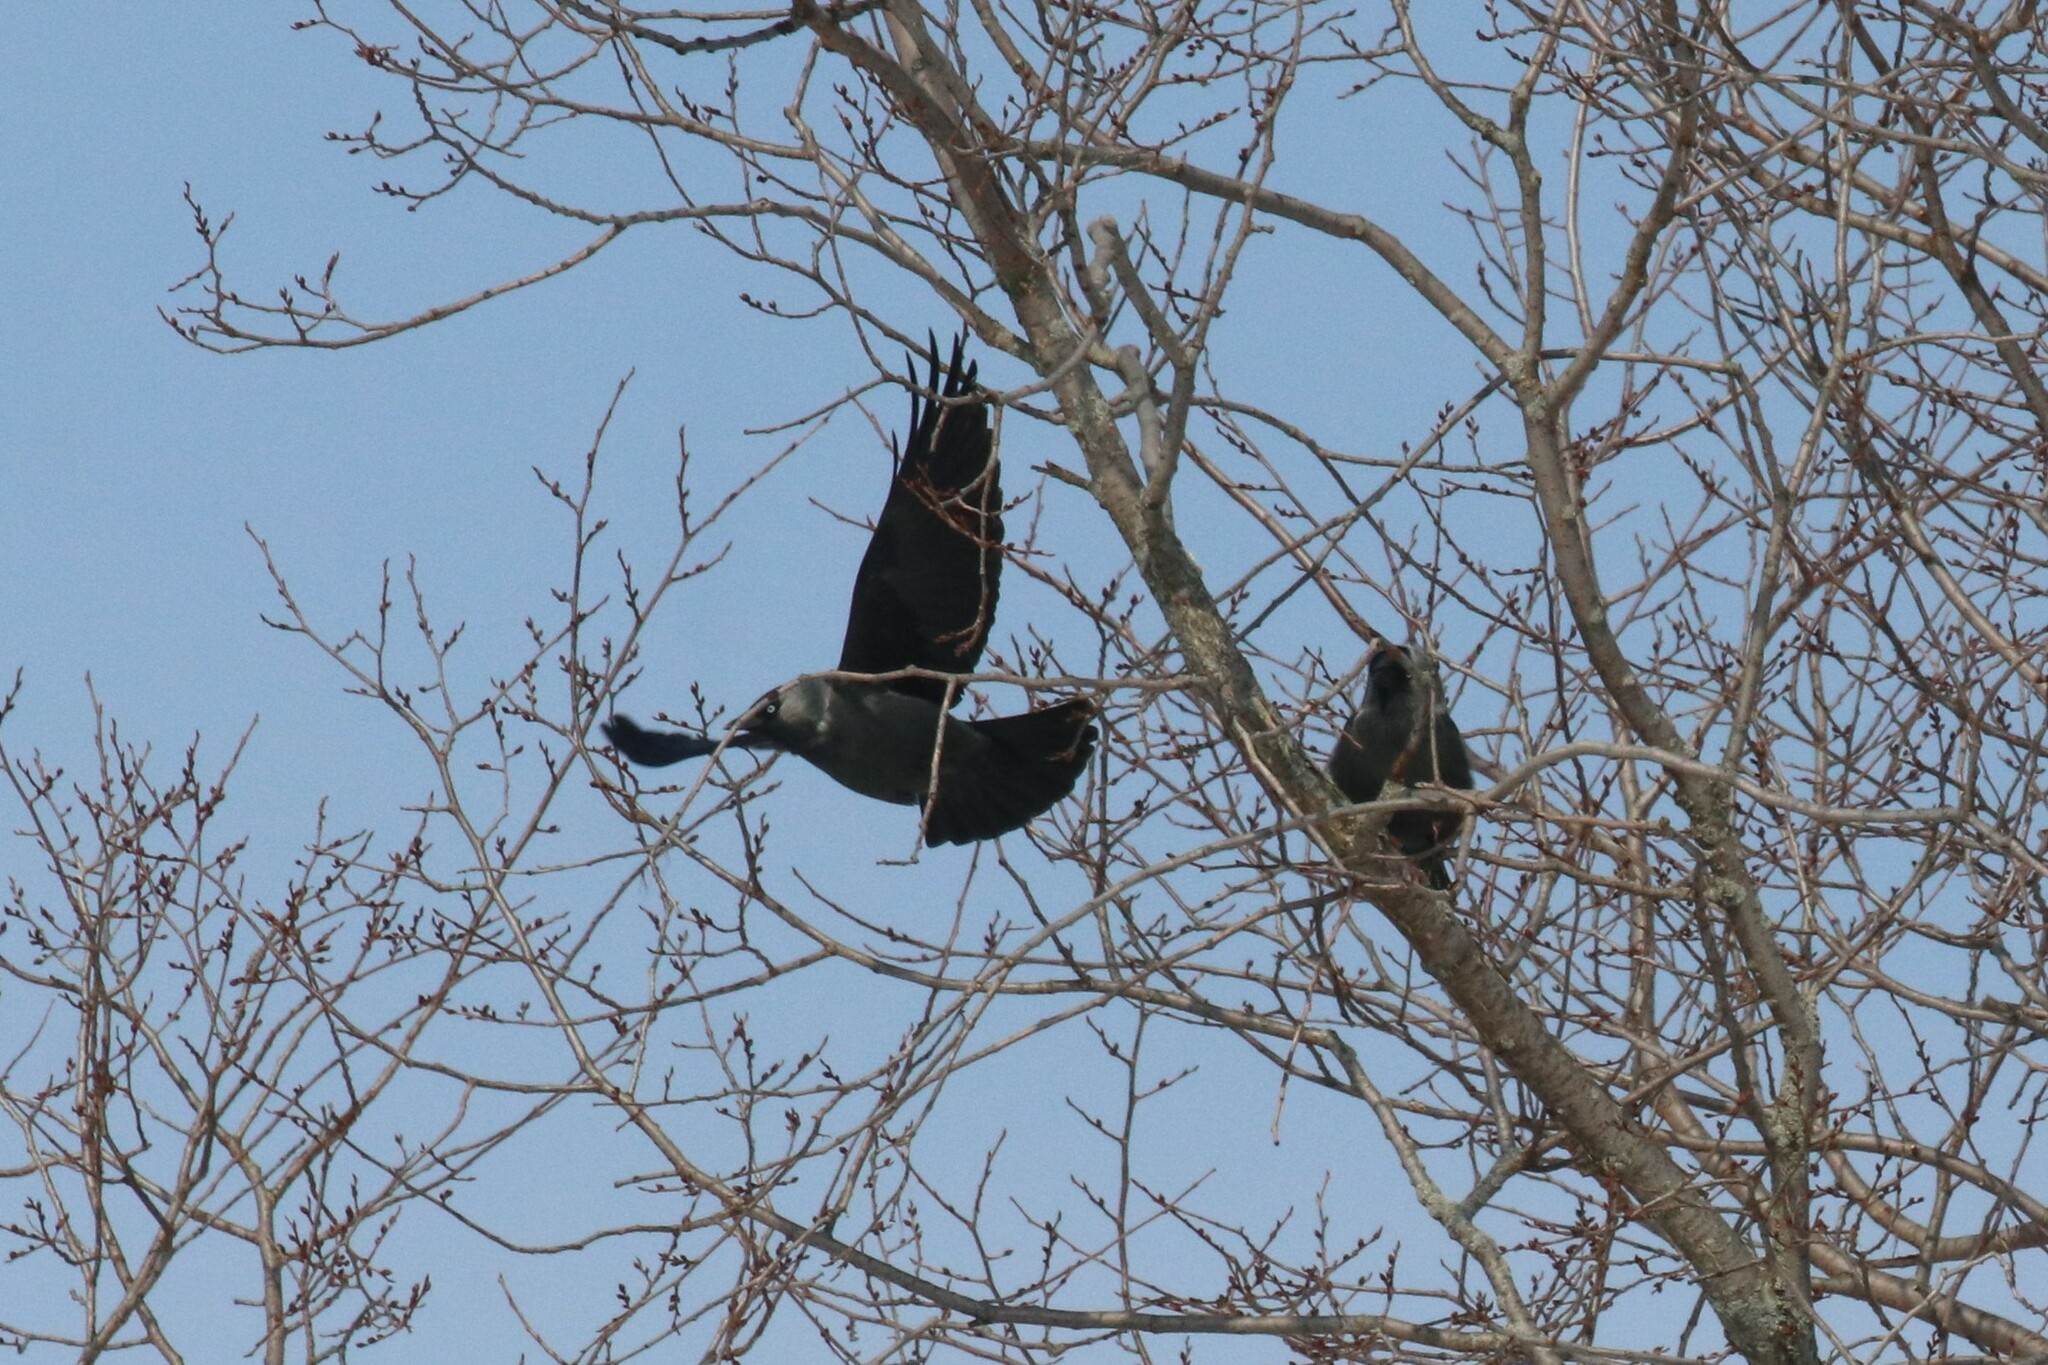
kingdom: Animalia
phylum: Chordata
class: Aves
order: Passeriformes
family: Corvidae
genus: Coloeus
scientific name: Coloeus monedula
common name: Western jackdaw
